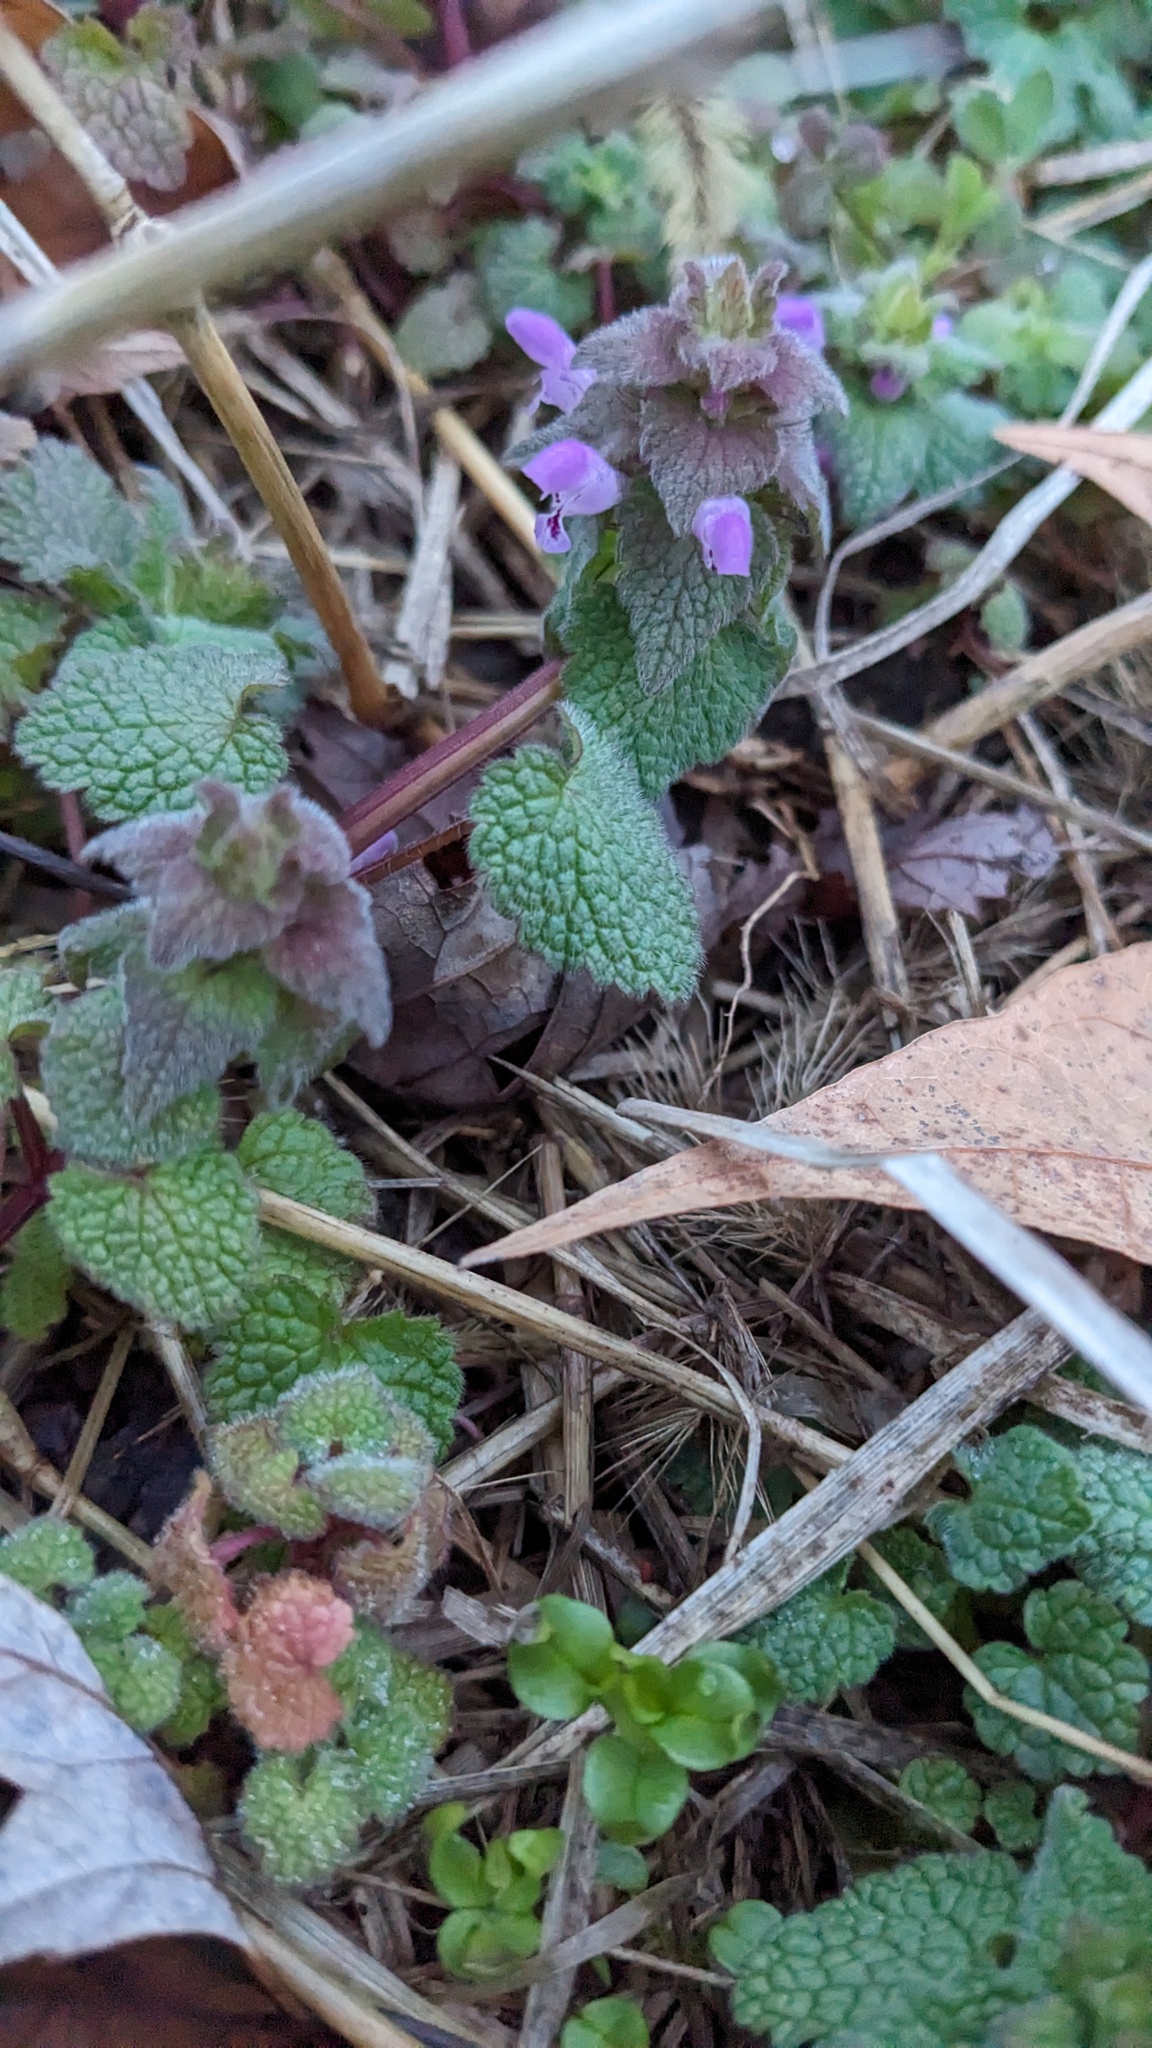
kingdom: Plantae
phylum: Tracheophyta
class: Magnoliopsida
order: Lamiales
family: Lamiaceae
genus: Lamium
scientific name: Lamium purpureum
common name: Red dead-nettle
